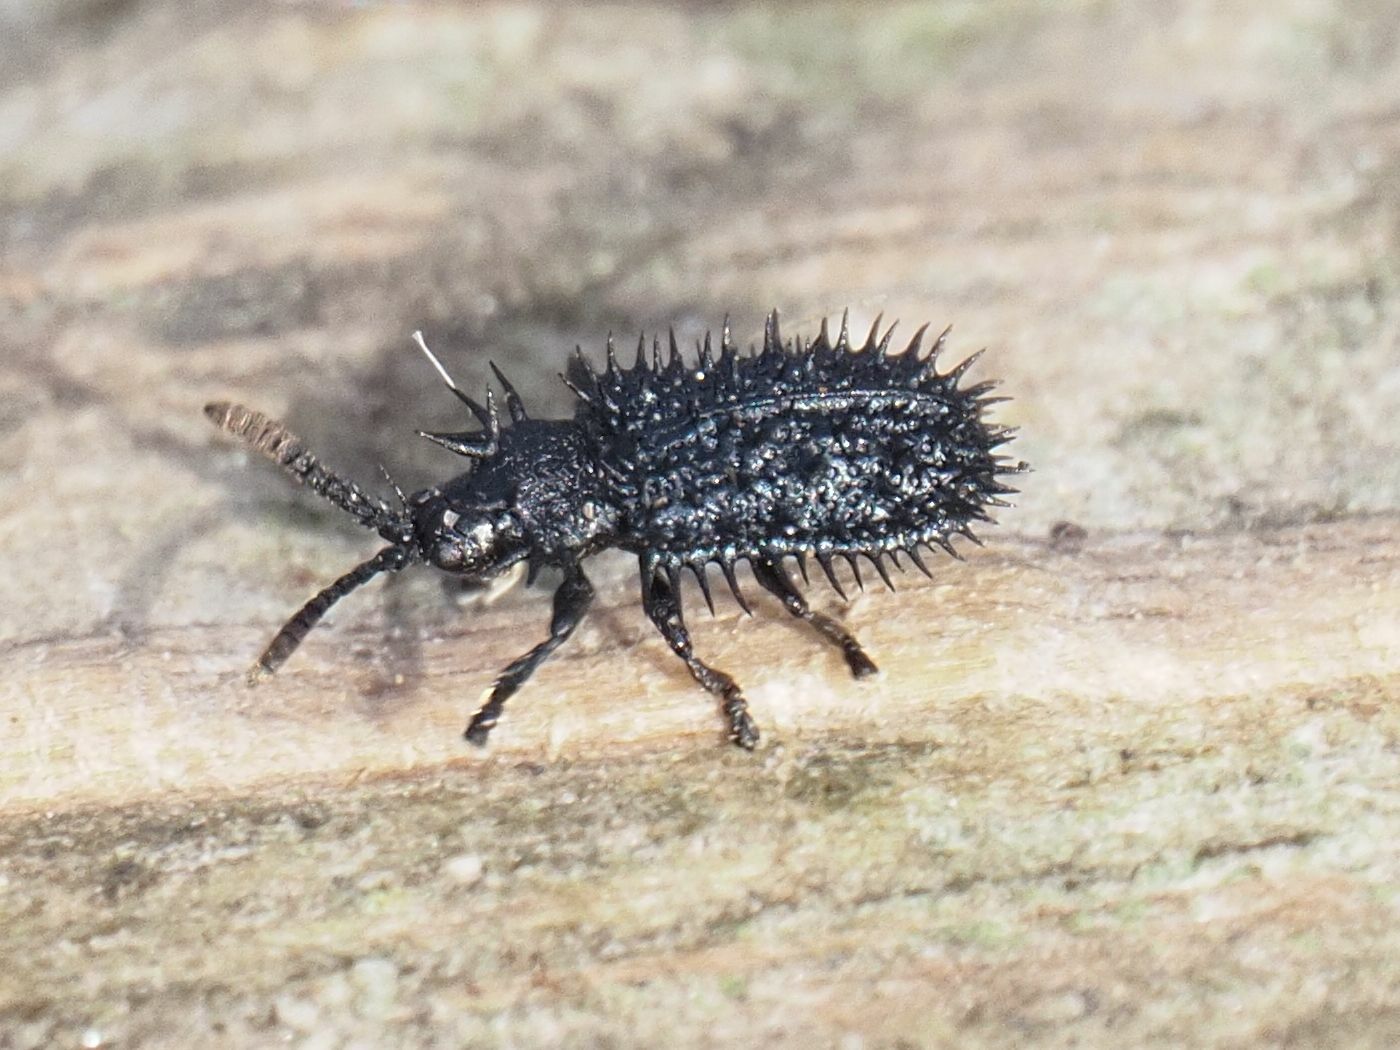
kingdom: Animalia
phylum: Arthropoda
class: Insecta
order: Coleoptera
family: Chrysomelidae
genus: Hispa
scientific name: Hispa atra
